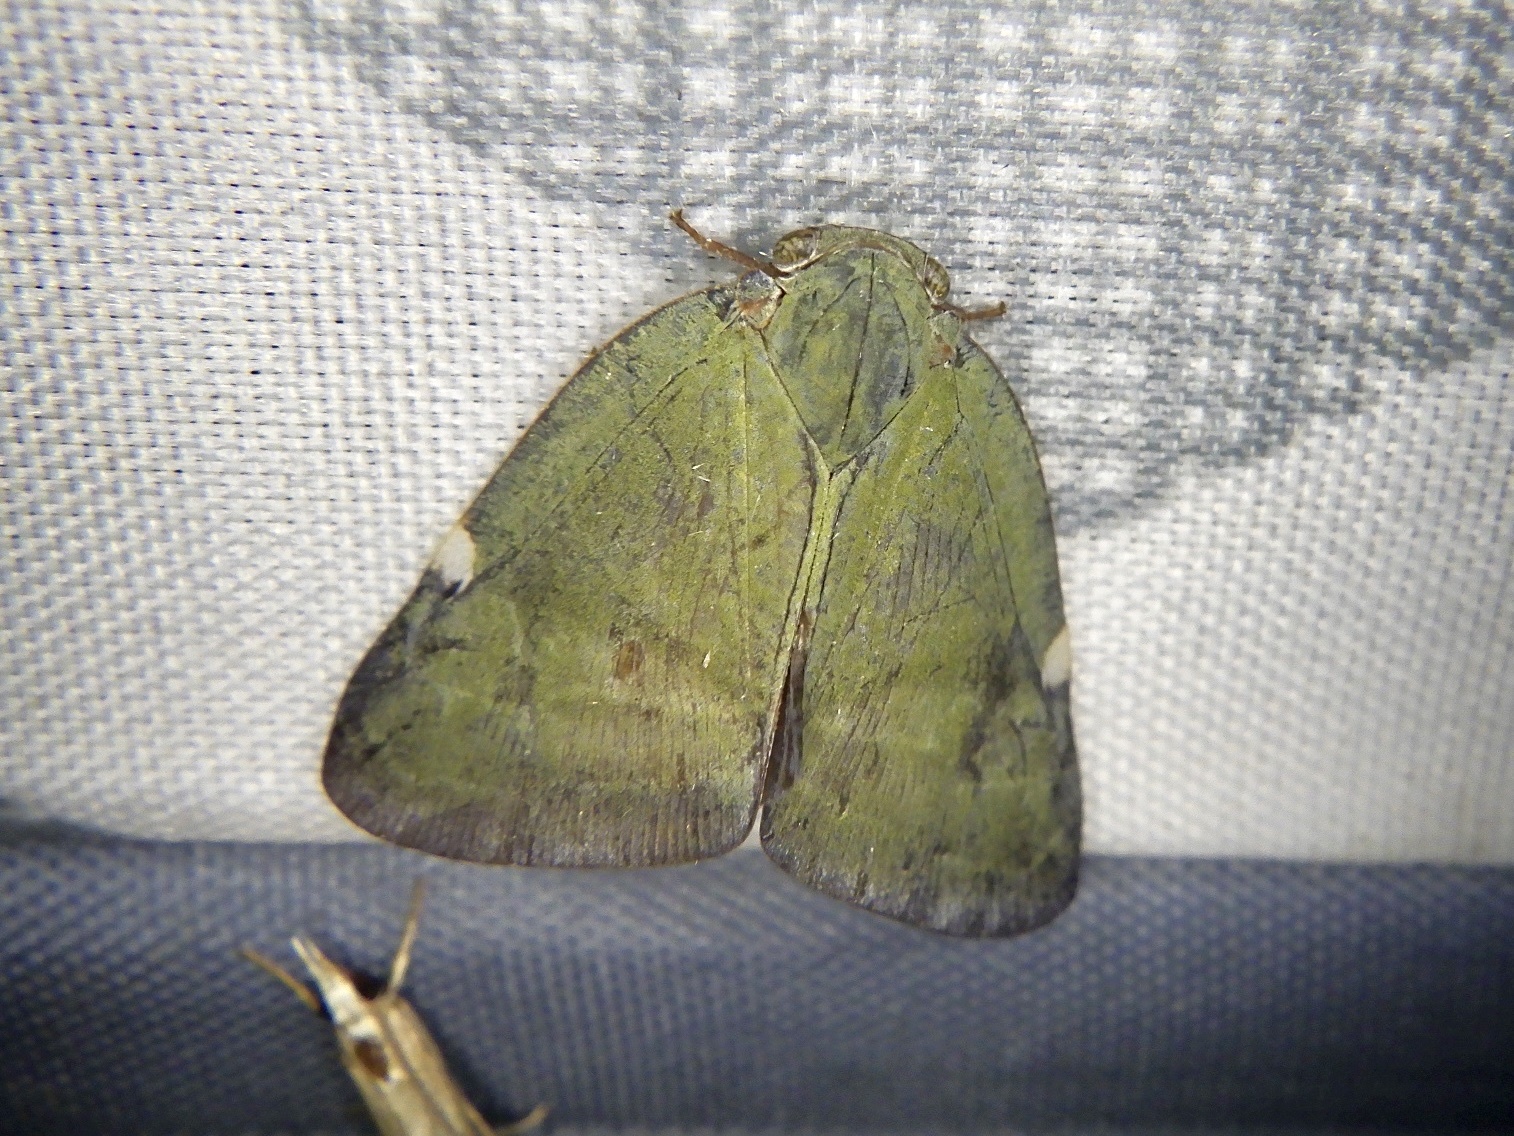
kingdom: Animalia
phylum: Arthropoda
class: Insecta
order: Hemiptera
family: Ricaniidae
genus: Pochazia
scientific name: Pochazia albomaculata
